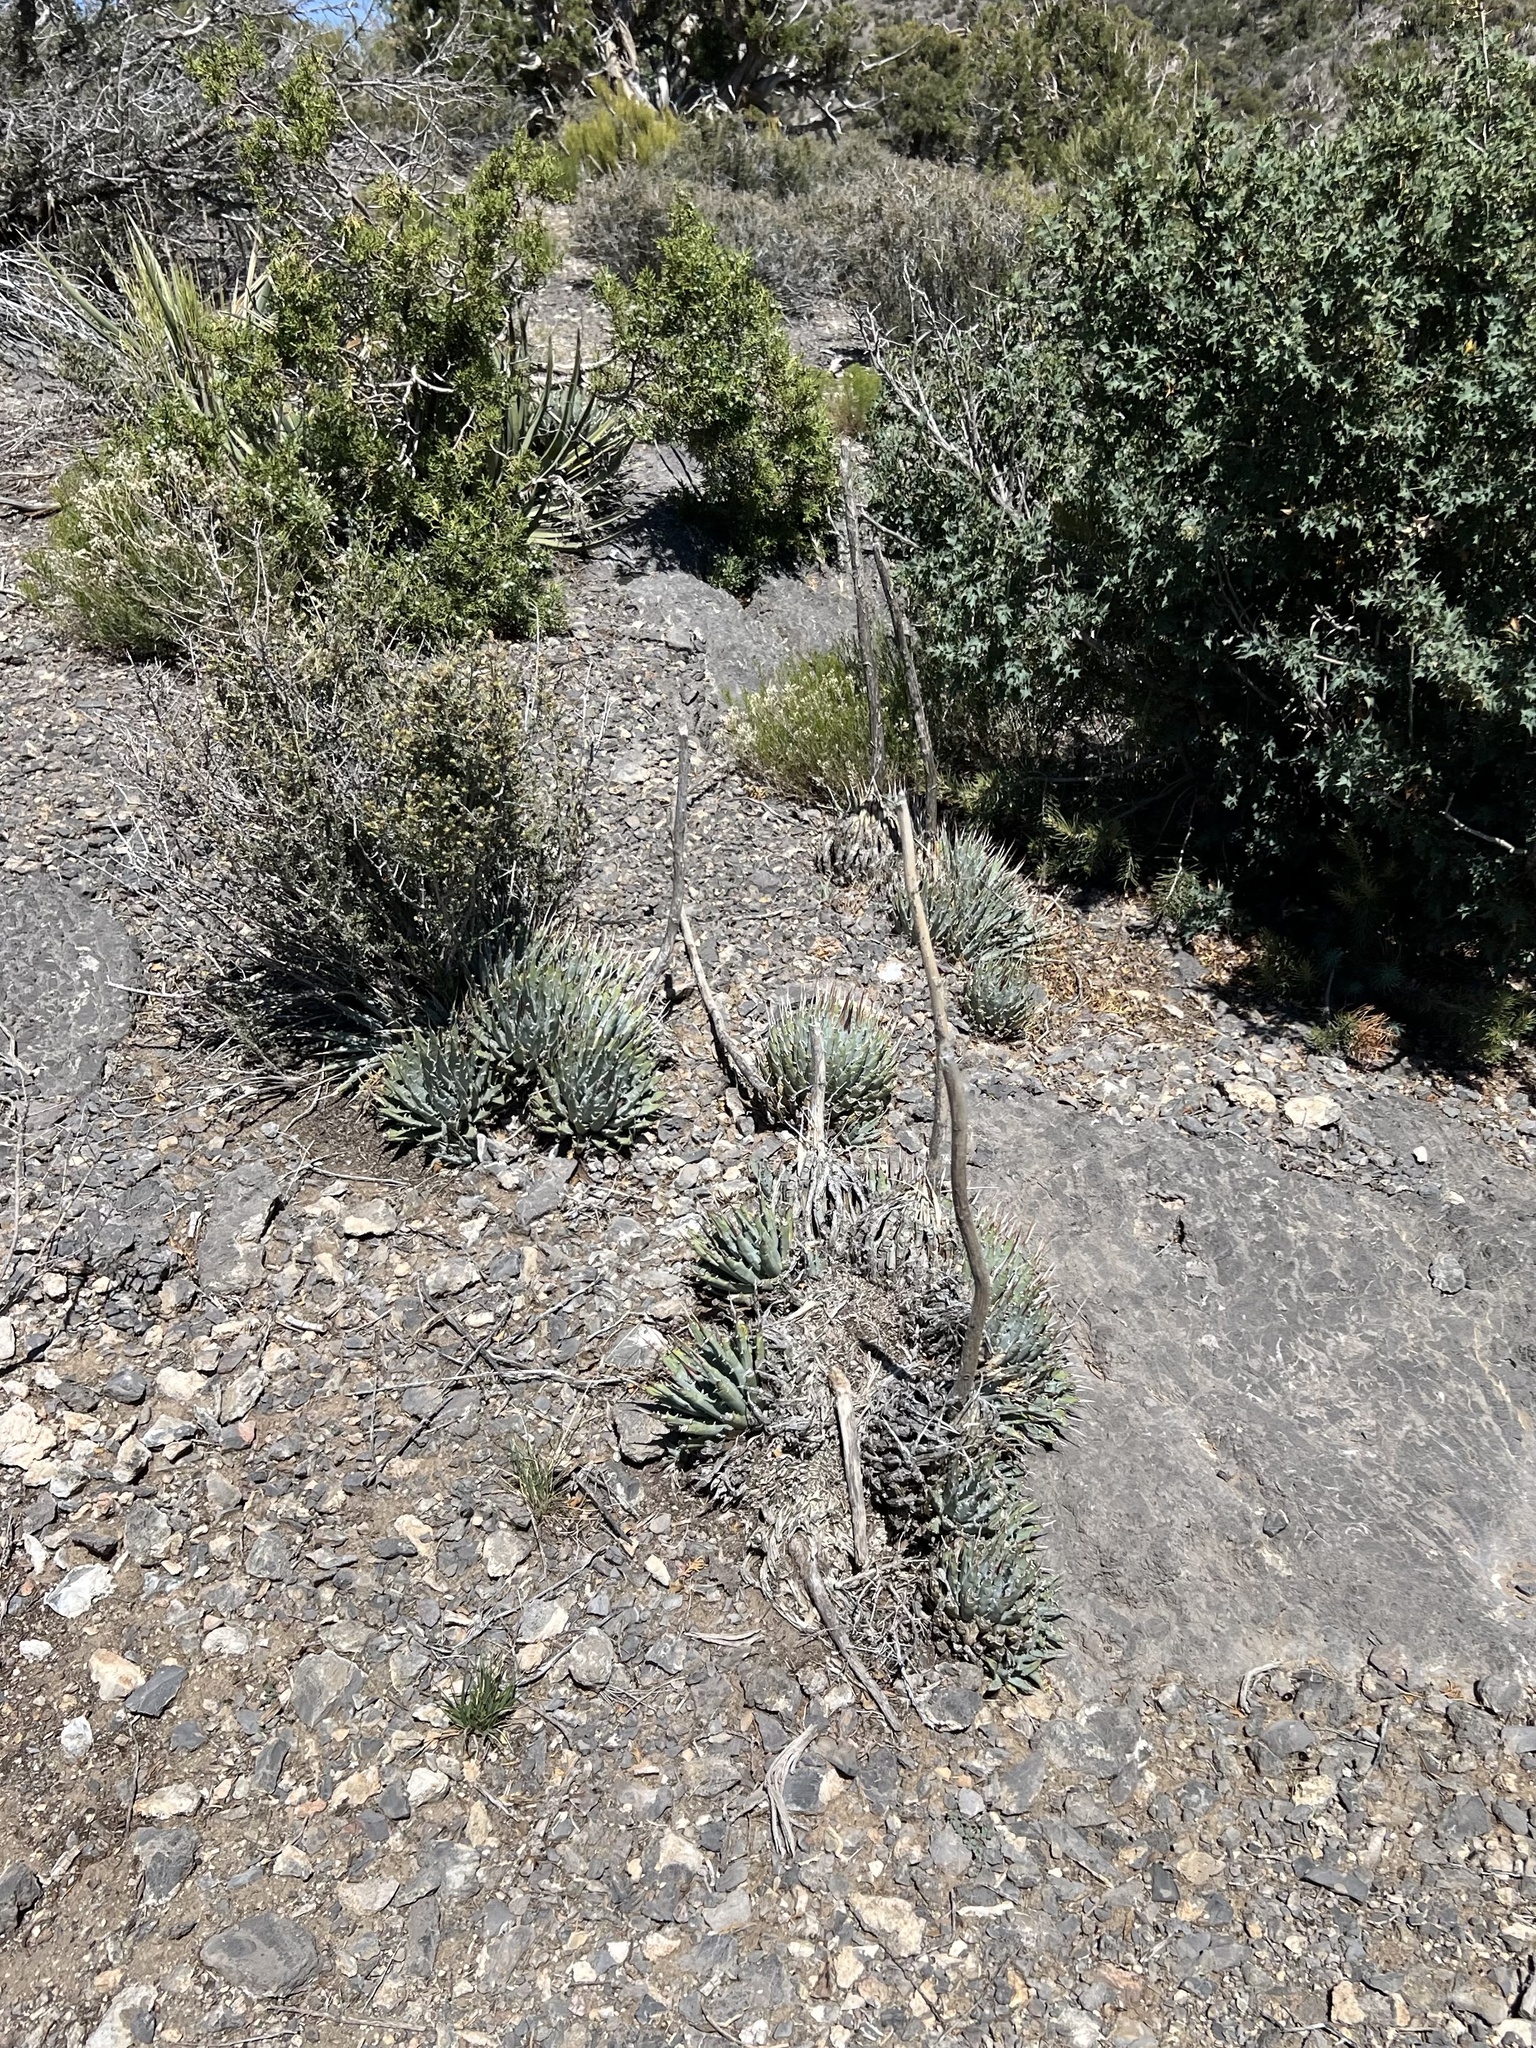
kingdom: Plantae
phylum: Tracheophyta
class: Liliopsida
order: Asparagales
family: Asparagaceae
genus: Agave
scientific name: Agave utahensis
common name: Utah agave
